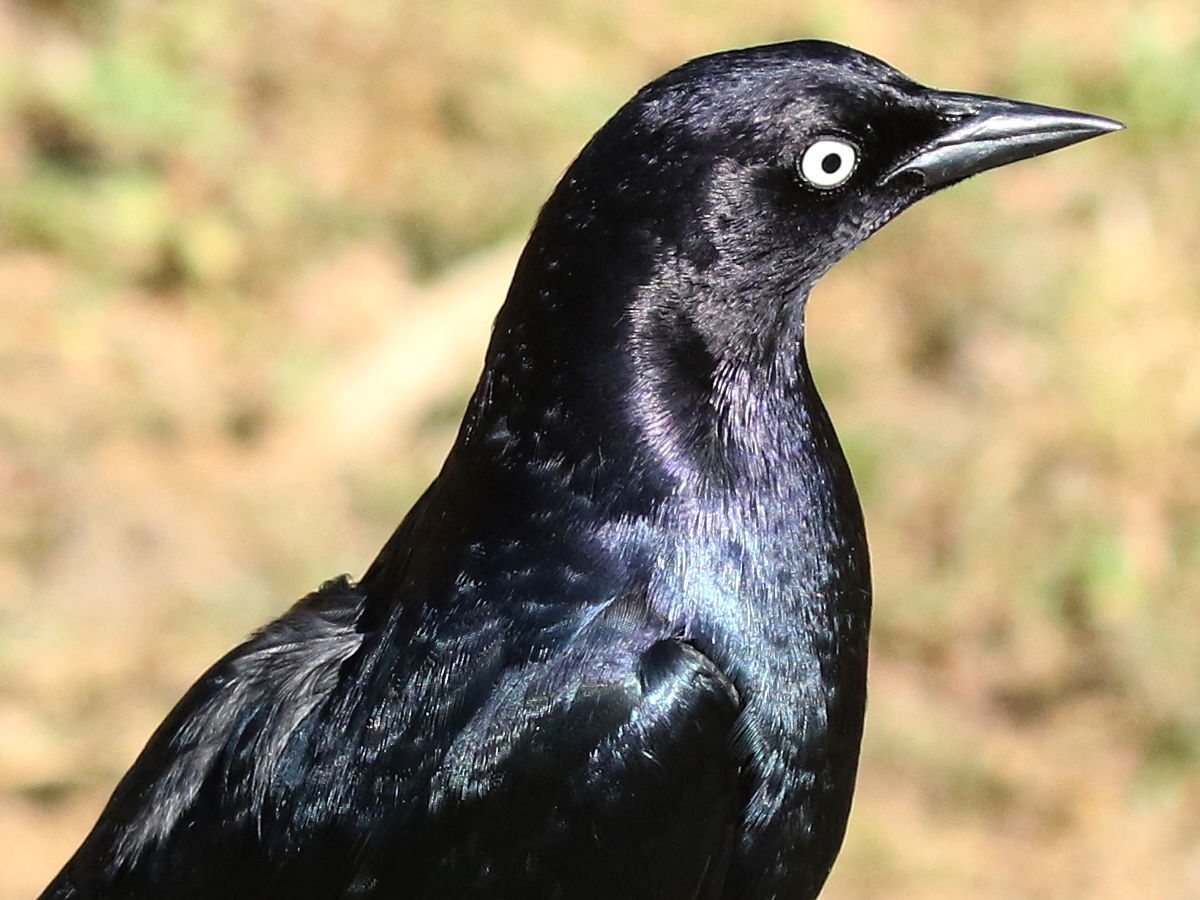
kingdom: Animalia
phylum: Chordata
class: Aves
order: Passeriformes
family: Icteridae
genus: Euphagus
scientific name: Euphagus cyanocephalus
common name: Brewer's blackbird
